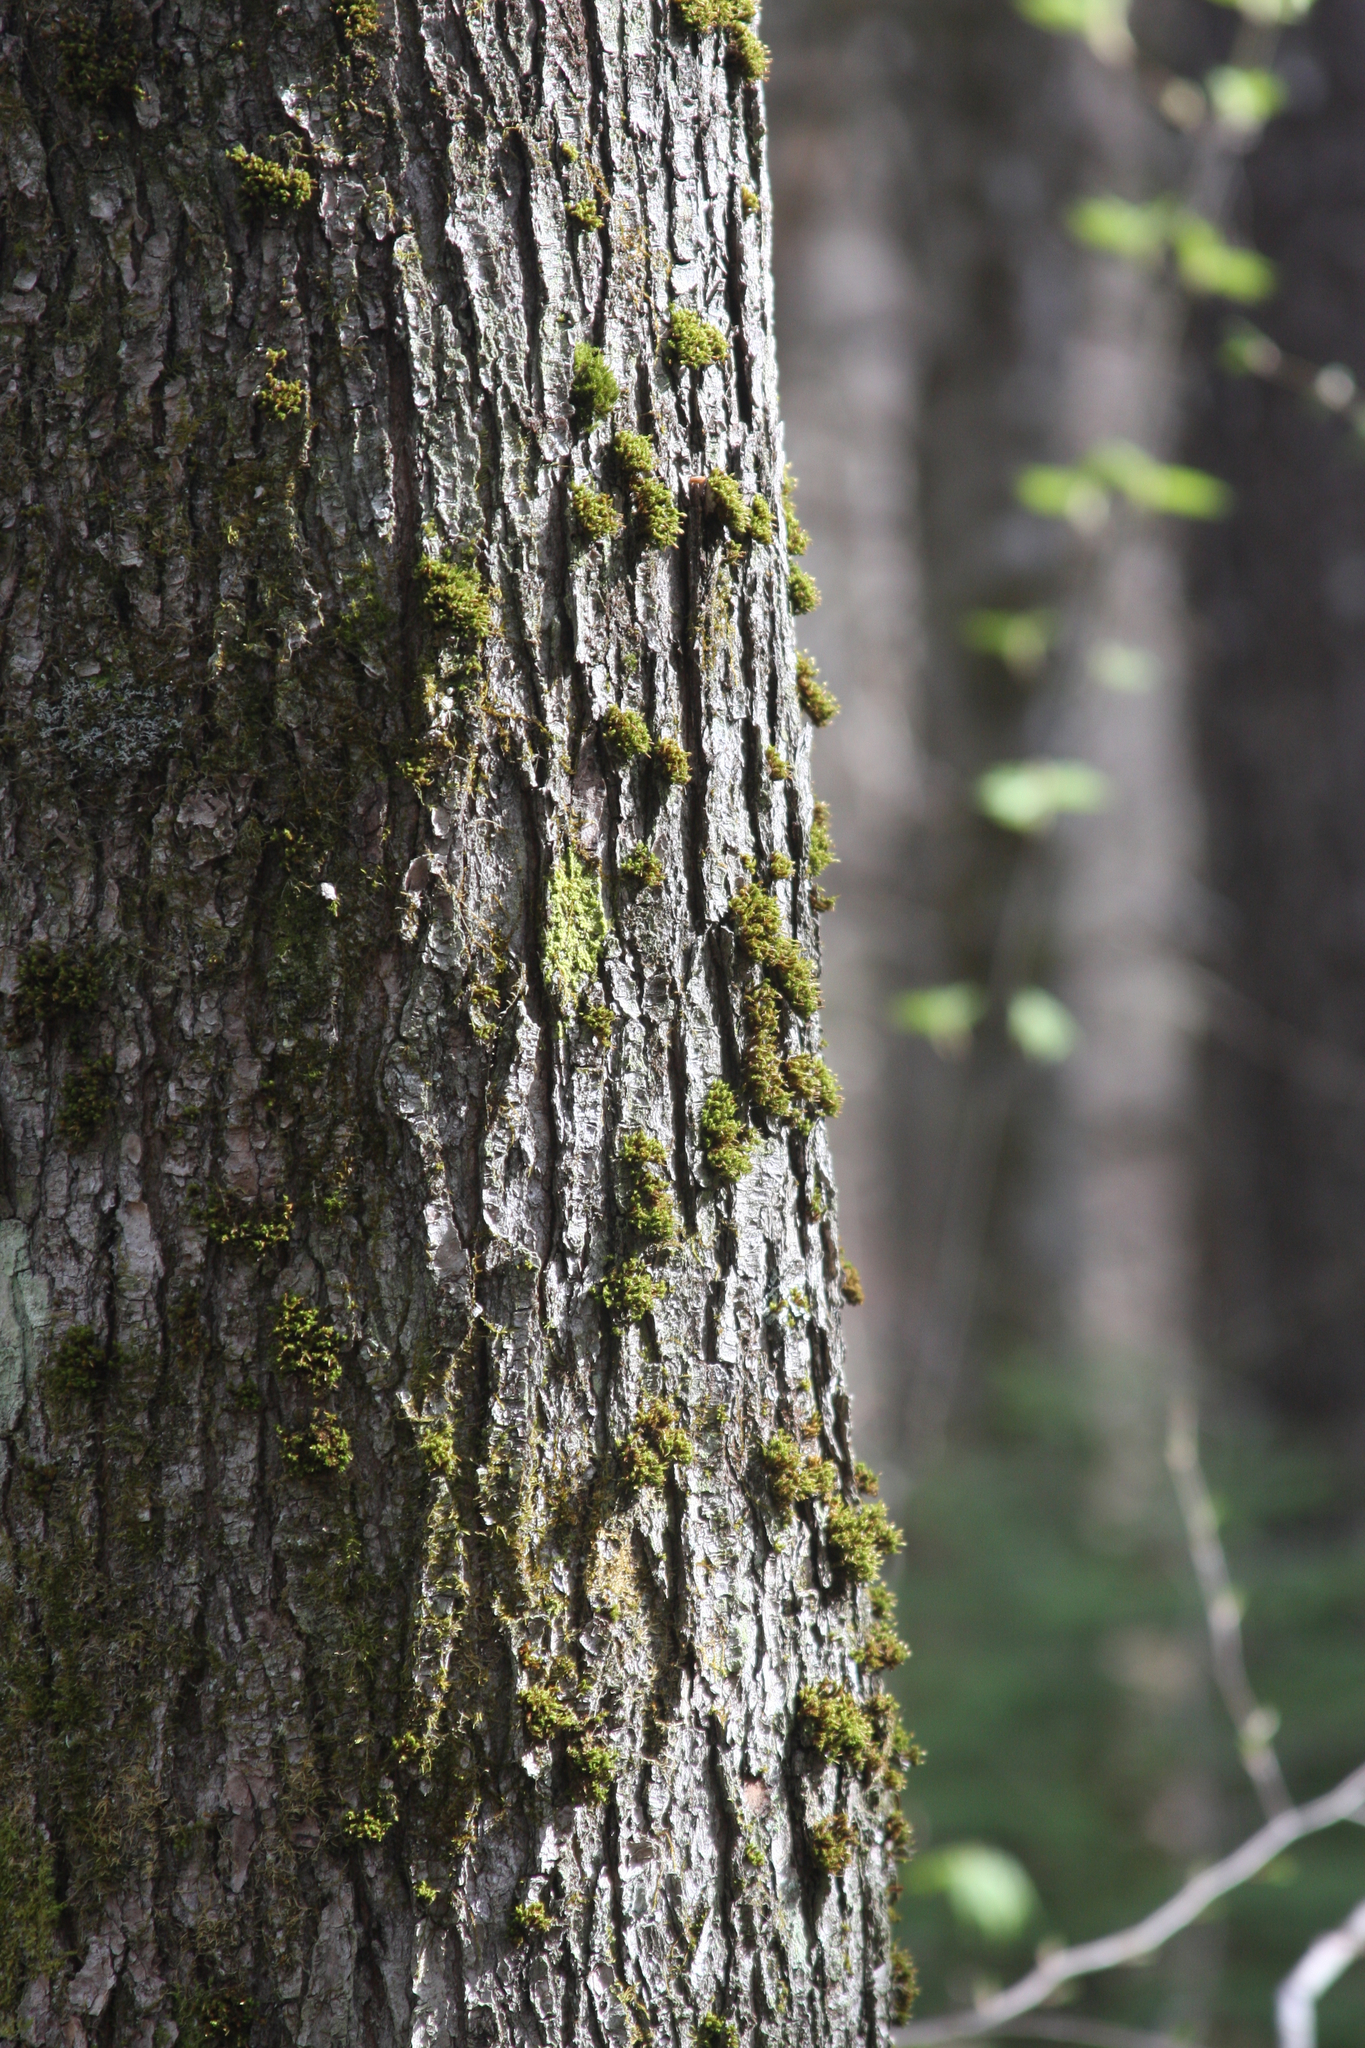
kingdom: Plantae
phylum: Bryophyta
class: Bryopsida
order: Orthotrichales
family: Orthotrichaceae
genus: Ulota
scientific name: Ulota crispa
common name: Crisped pincushion moss
